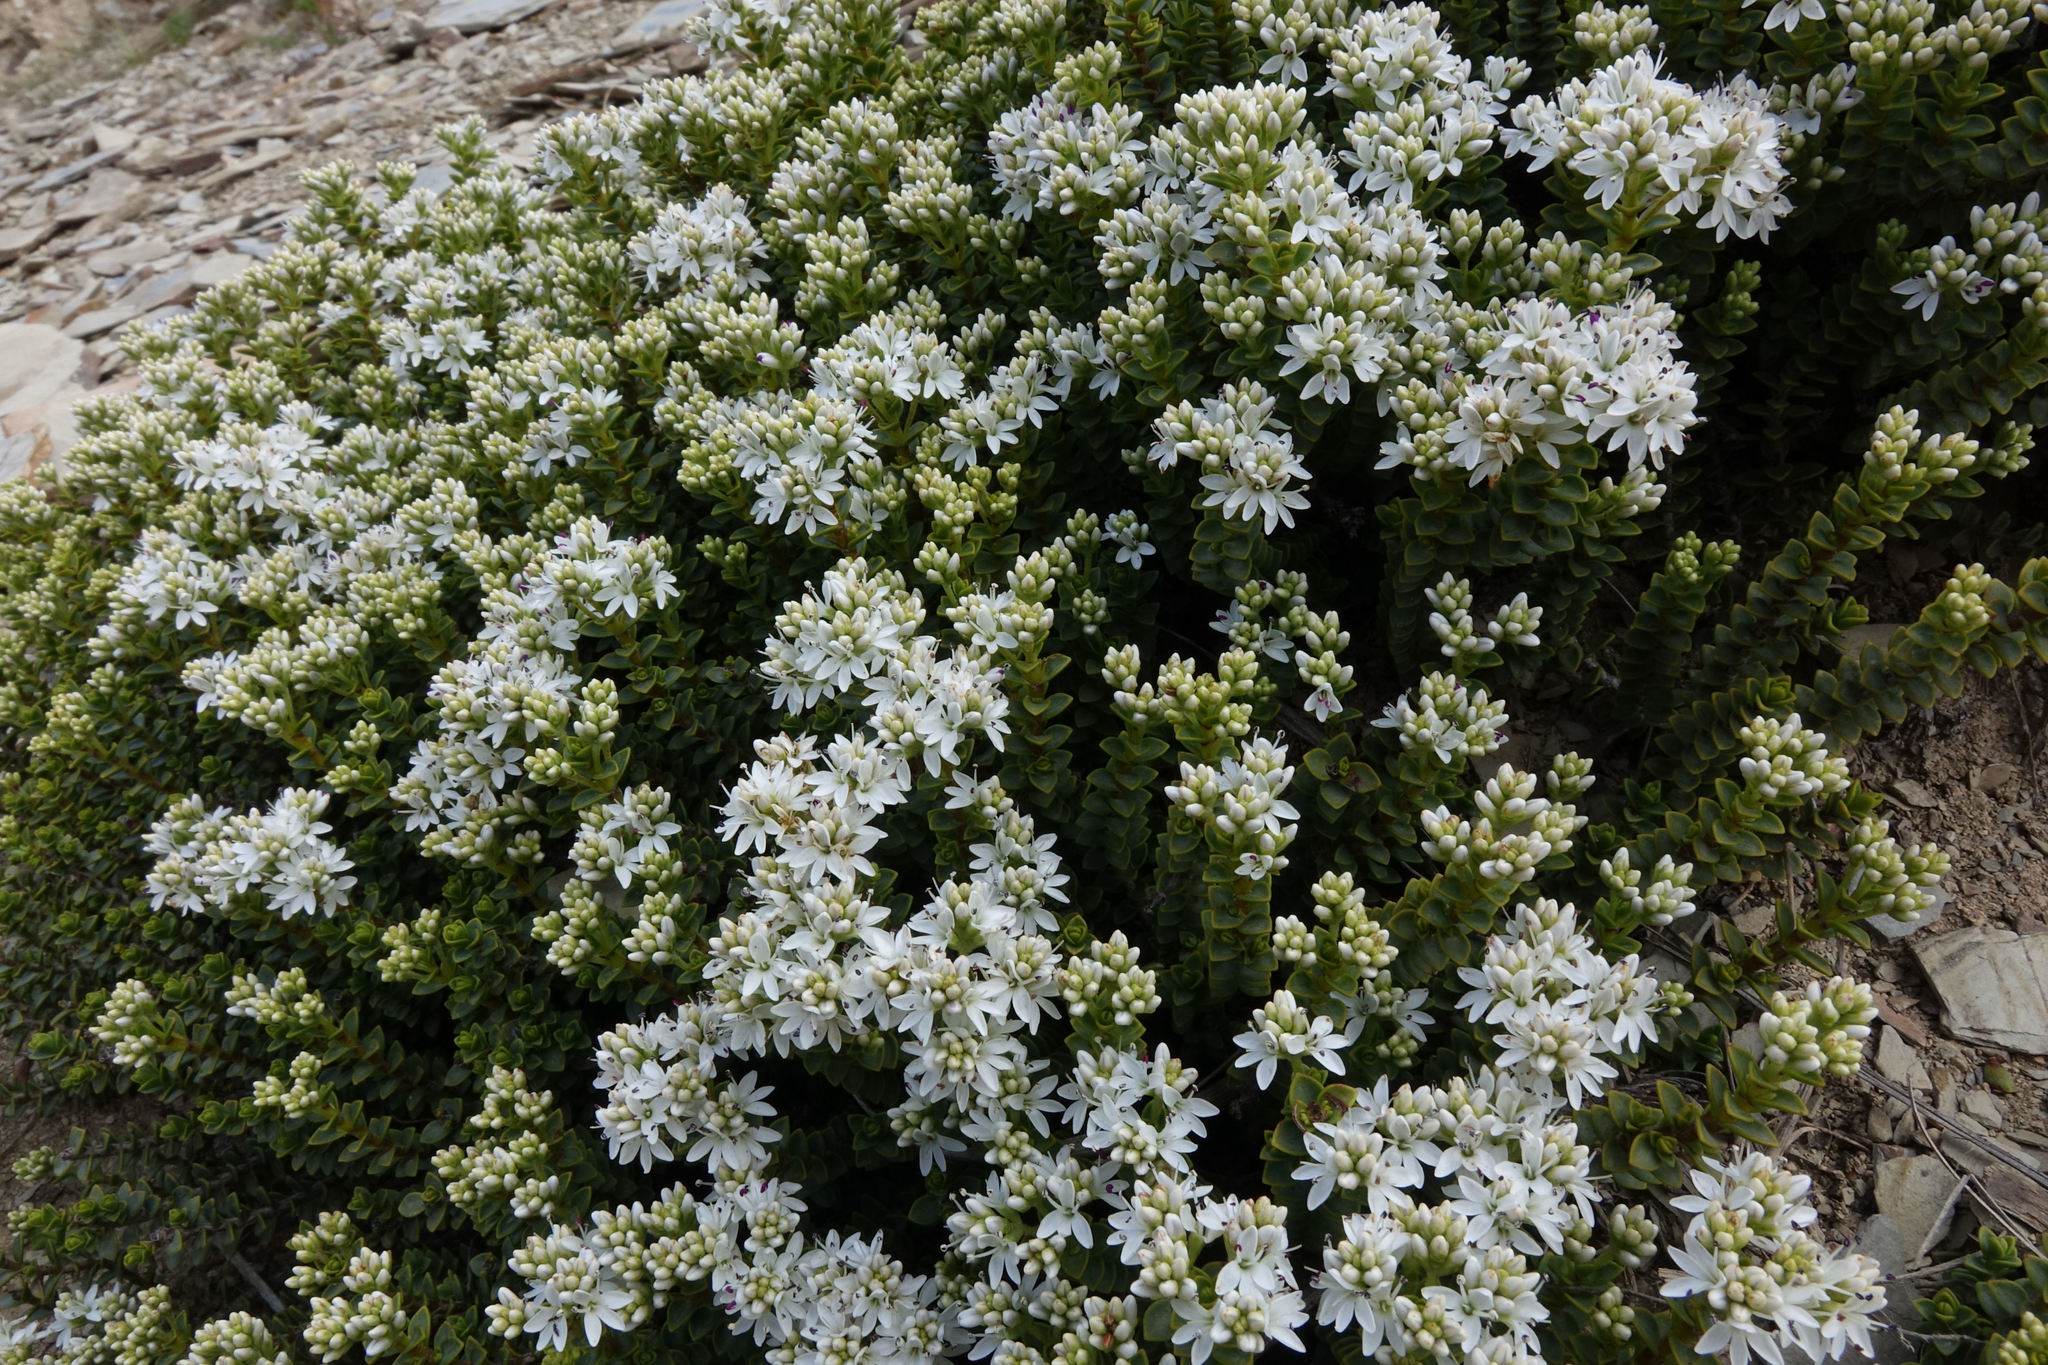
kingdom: Plantae
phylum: Tracheophyta
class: Magnoliopsida
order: Lamiales
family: Plantaginaceae
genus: Veronica
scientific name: Veronica buchananii
